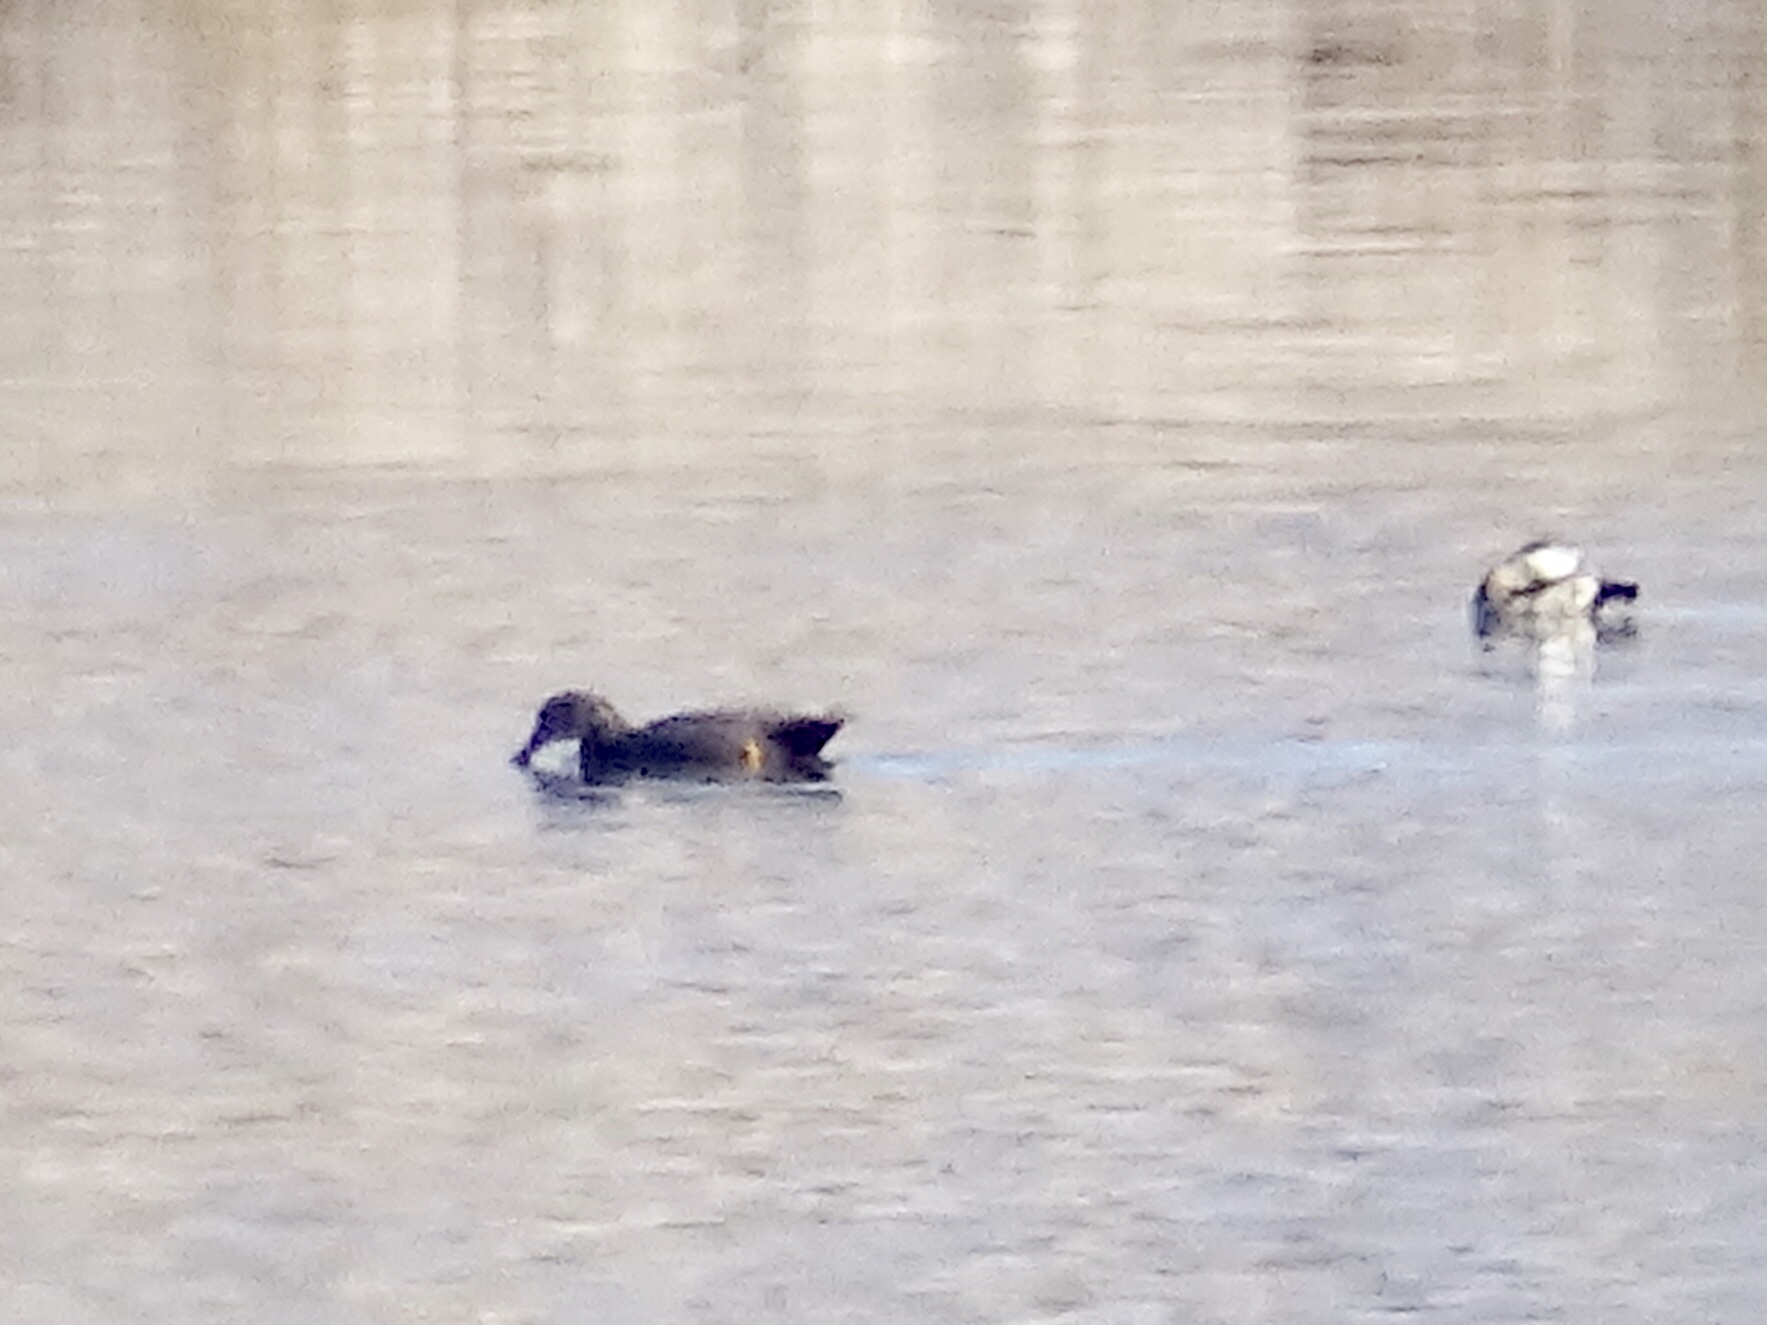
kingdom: Animalia
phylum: Chordata
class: Aves
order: Anseriformes
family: Anatidae
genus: Mareca
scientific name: Mareca strepera
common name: Gadwall
